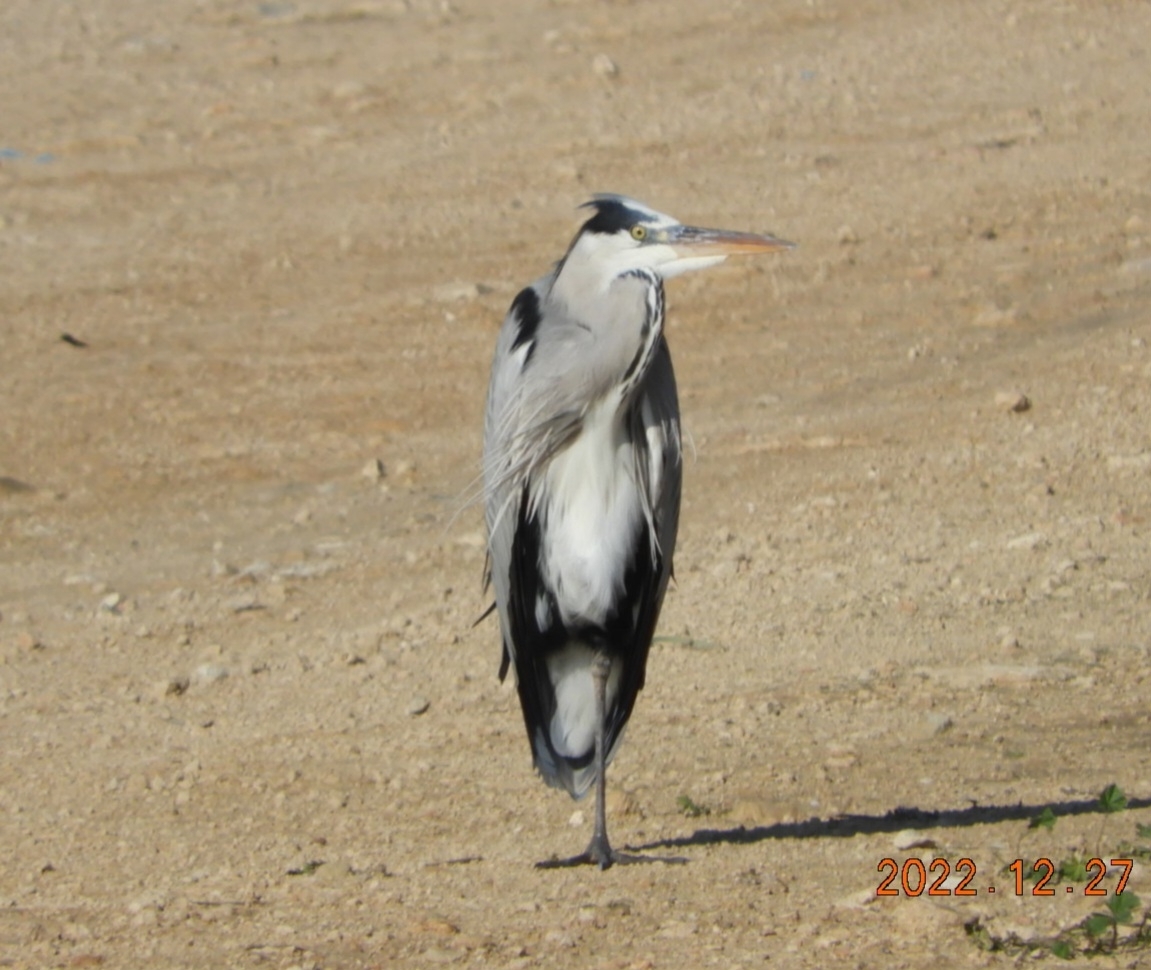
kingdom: Animalia
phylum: Chordata
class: Aves
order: Pelecaniformes
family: Ardeidae
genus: Ardea
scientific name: Ardea cinerea
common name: Grey heron
